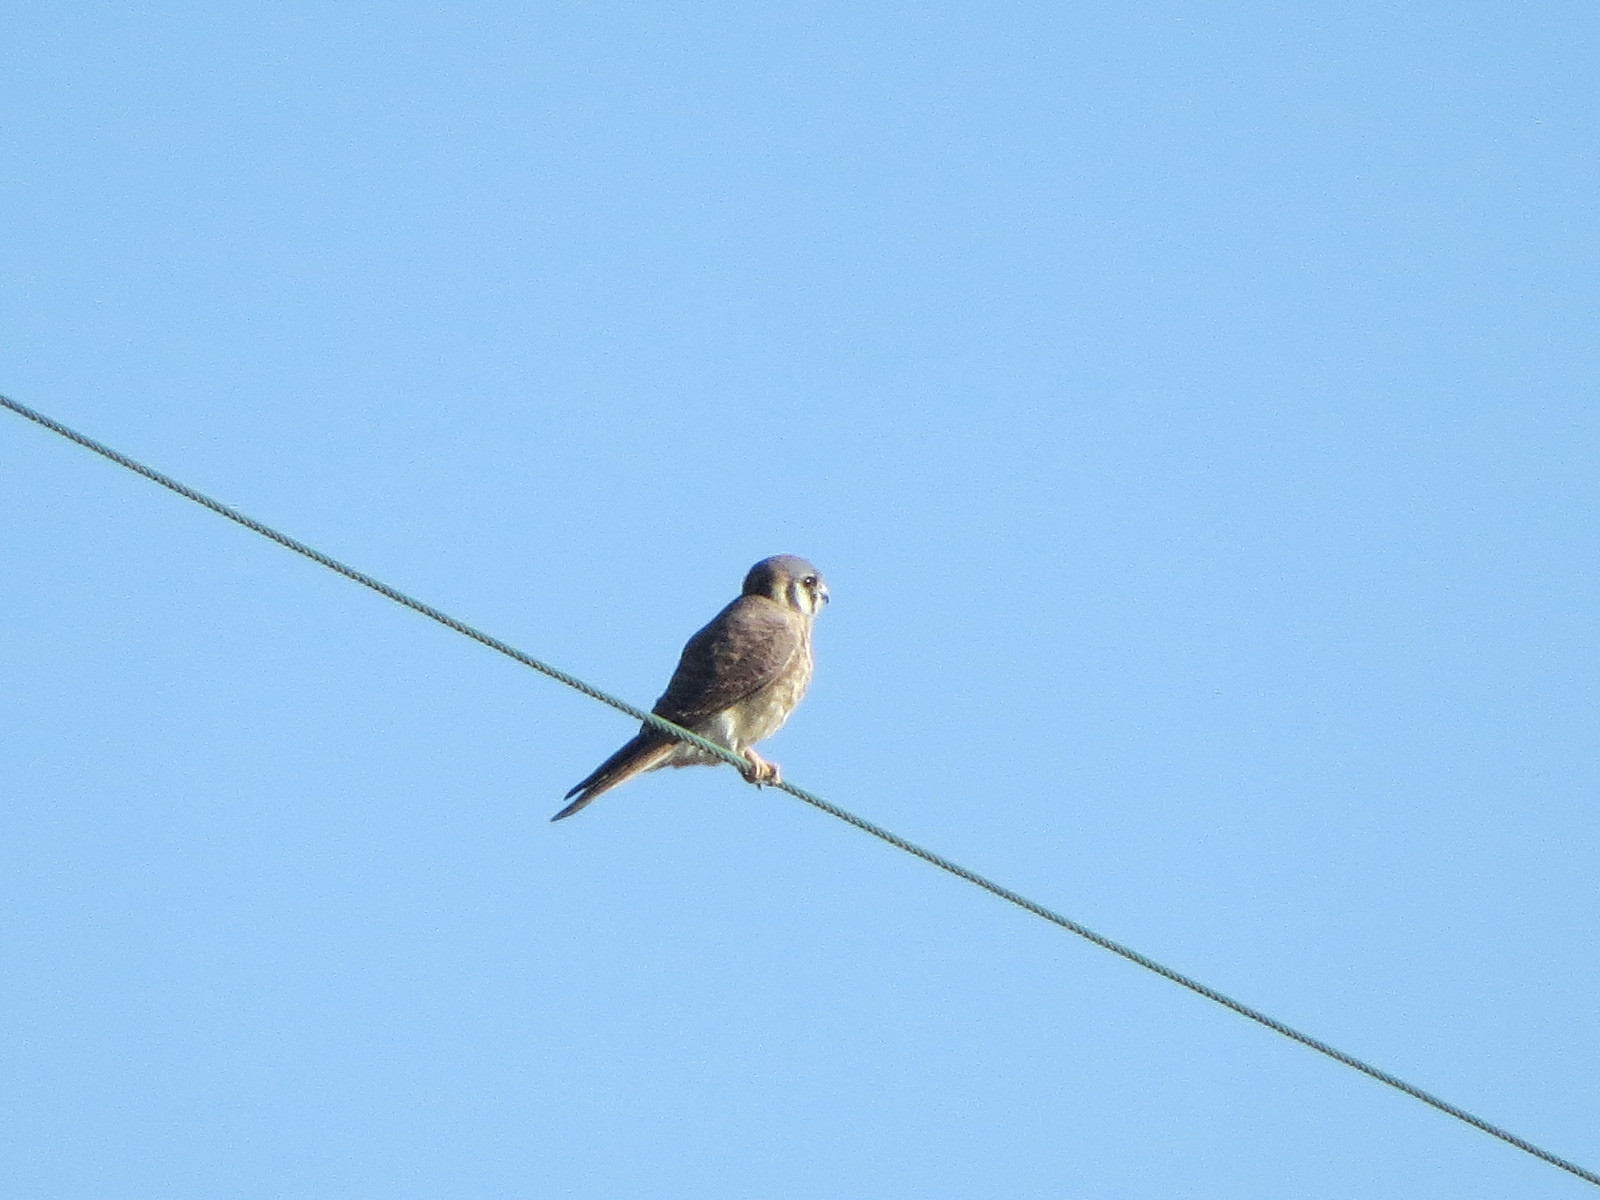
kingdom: Animalia
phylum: Chordata
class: Aves
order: Falconiformes
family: Falconidae
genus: Falco
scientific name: Falco sparverius
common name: American kestrel
